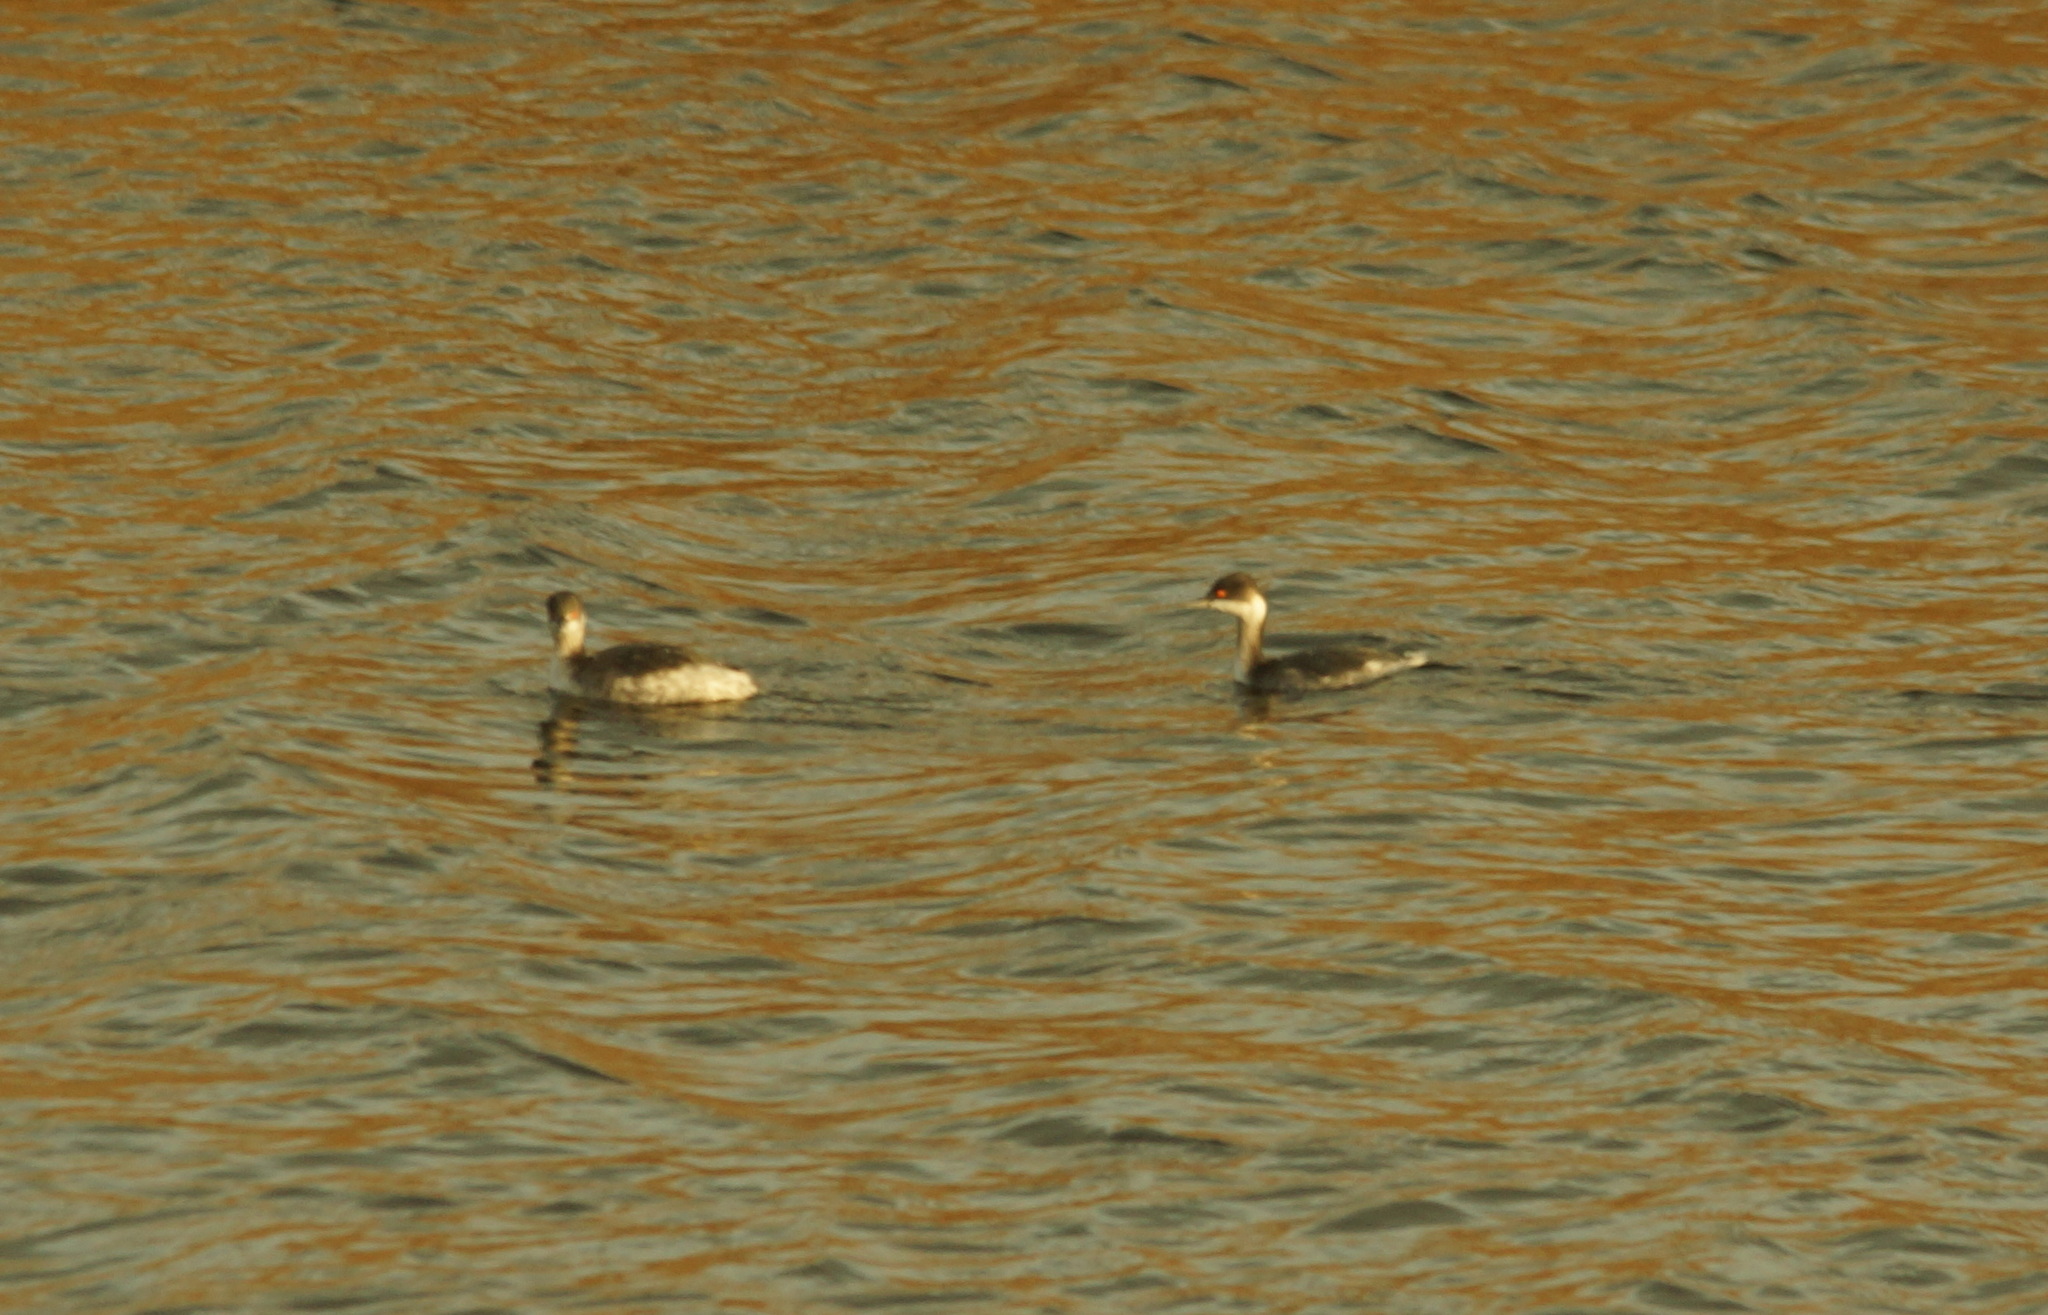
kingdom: Animalia
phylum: Chordata
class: Aves
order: Podicipediformes
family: Podicipedidae
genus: Podiceps
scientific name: Podiceps nigricollis
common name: Black-necked grebe
